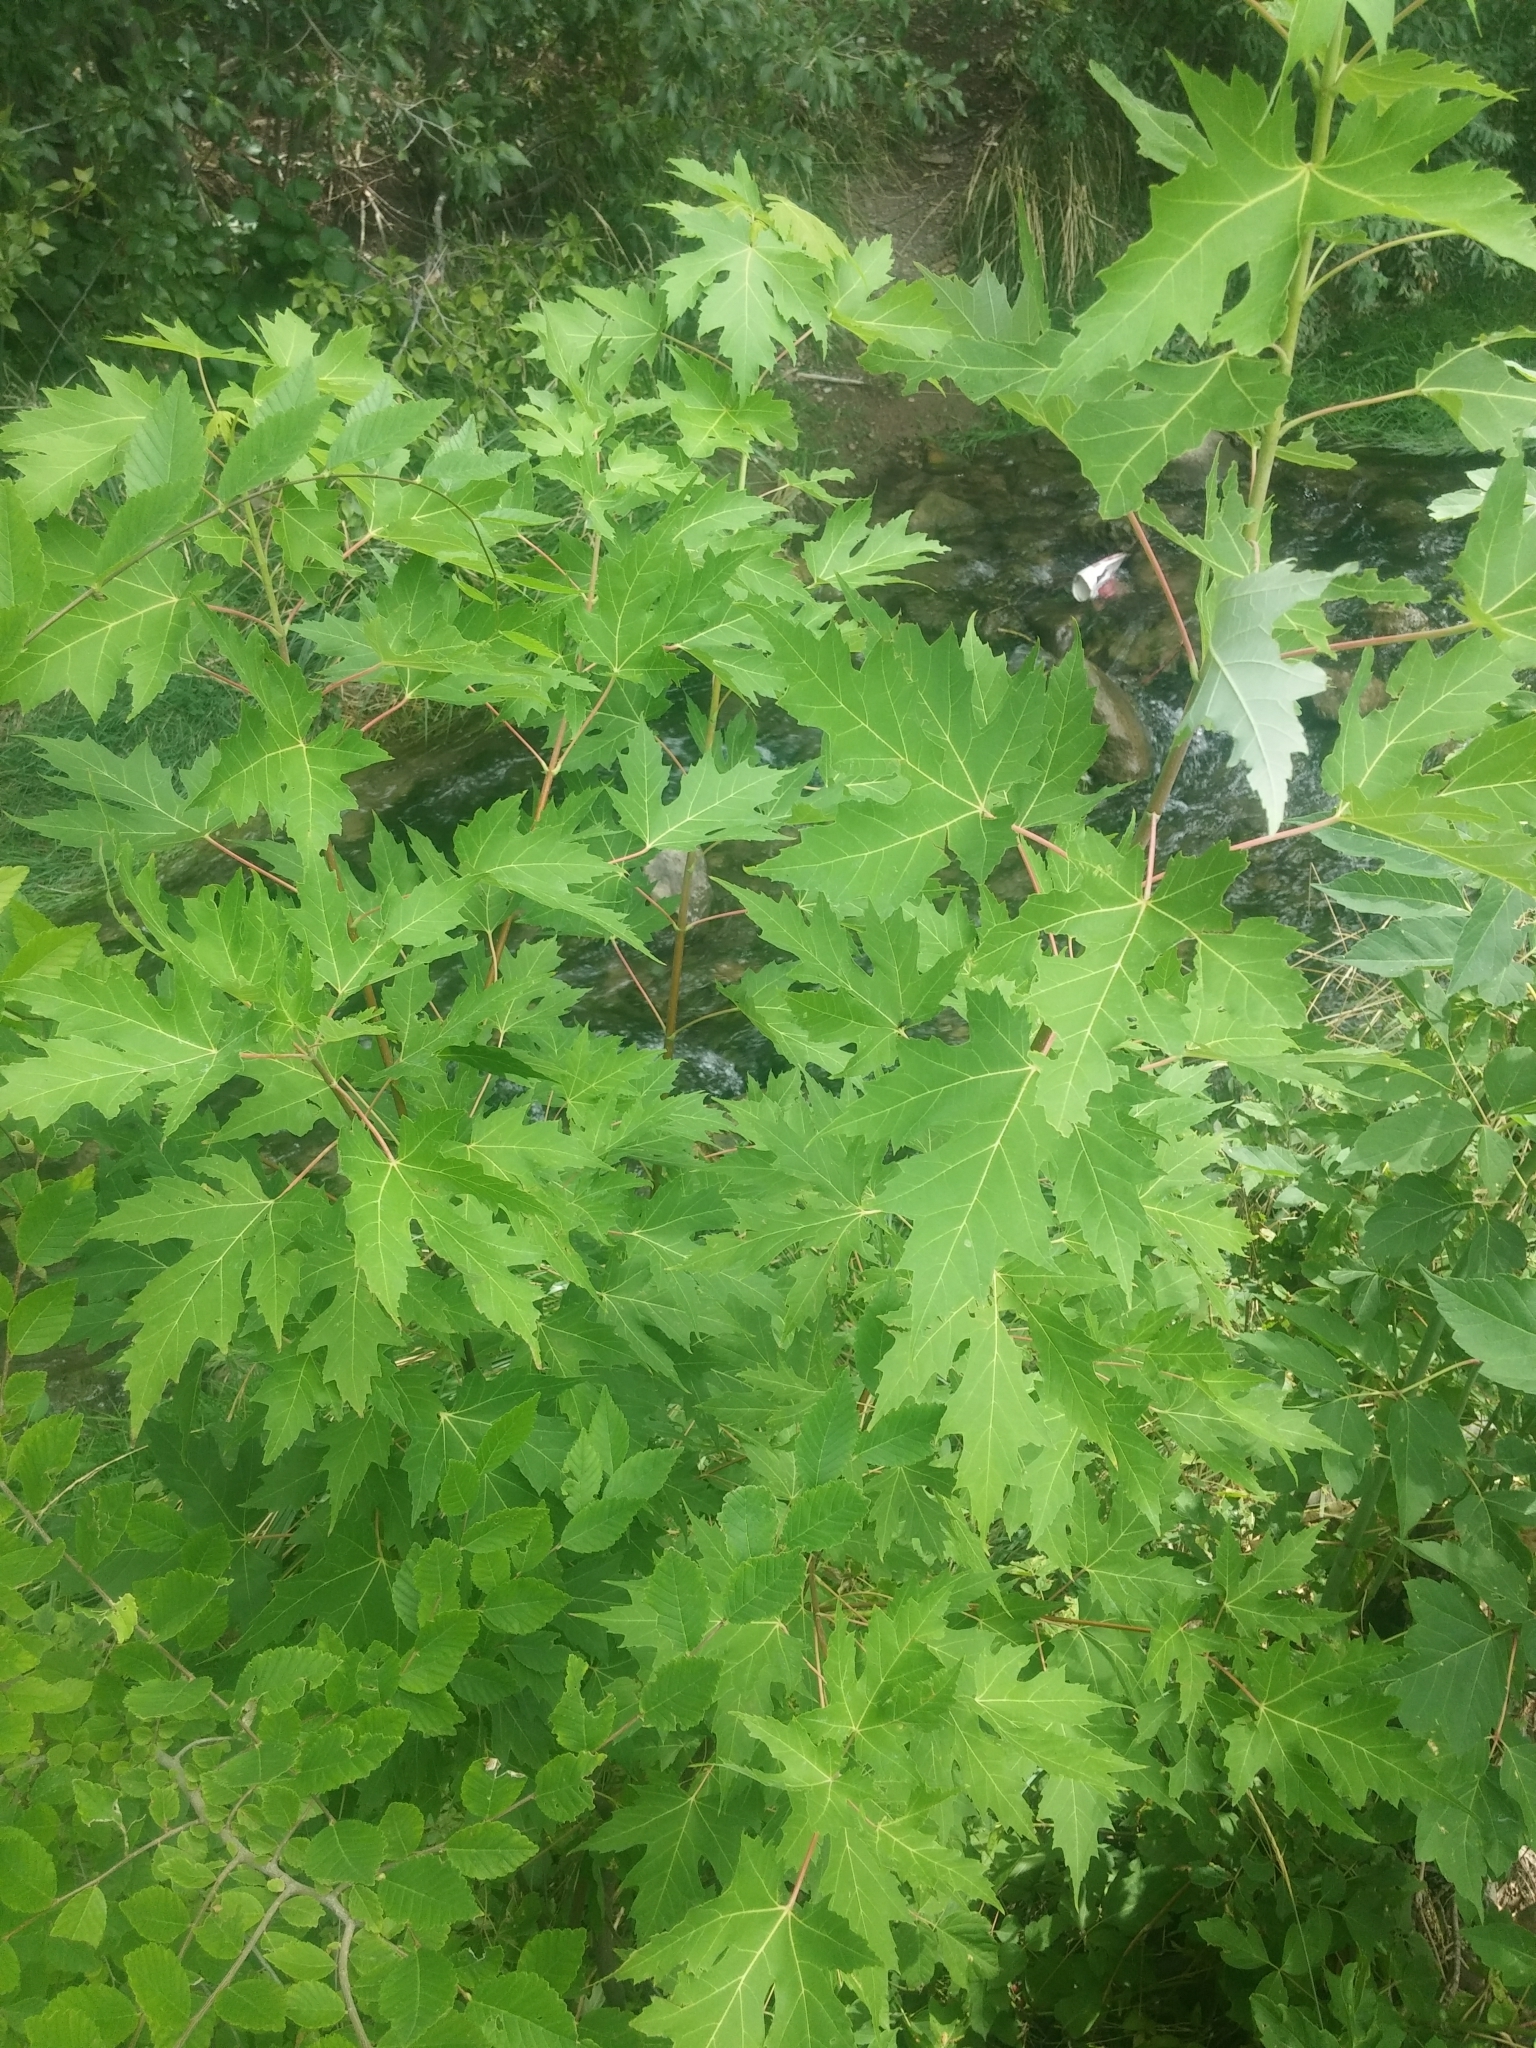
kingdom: Plantae
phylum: Tracheophyta
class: Magnoliopsida
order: Sapindales
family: Sapindaceae
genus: Acer
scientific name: Acer saccharinum
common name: Silver maple
